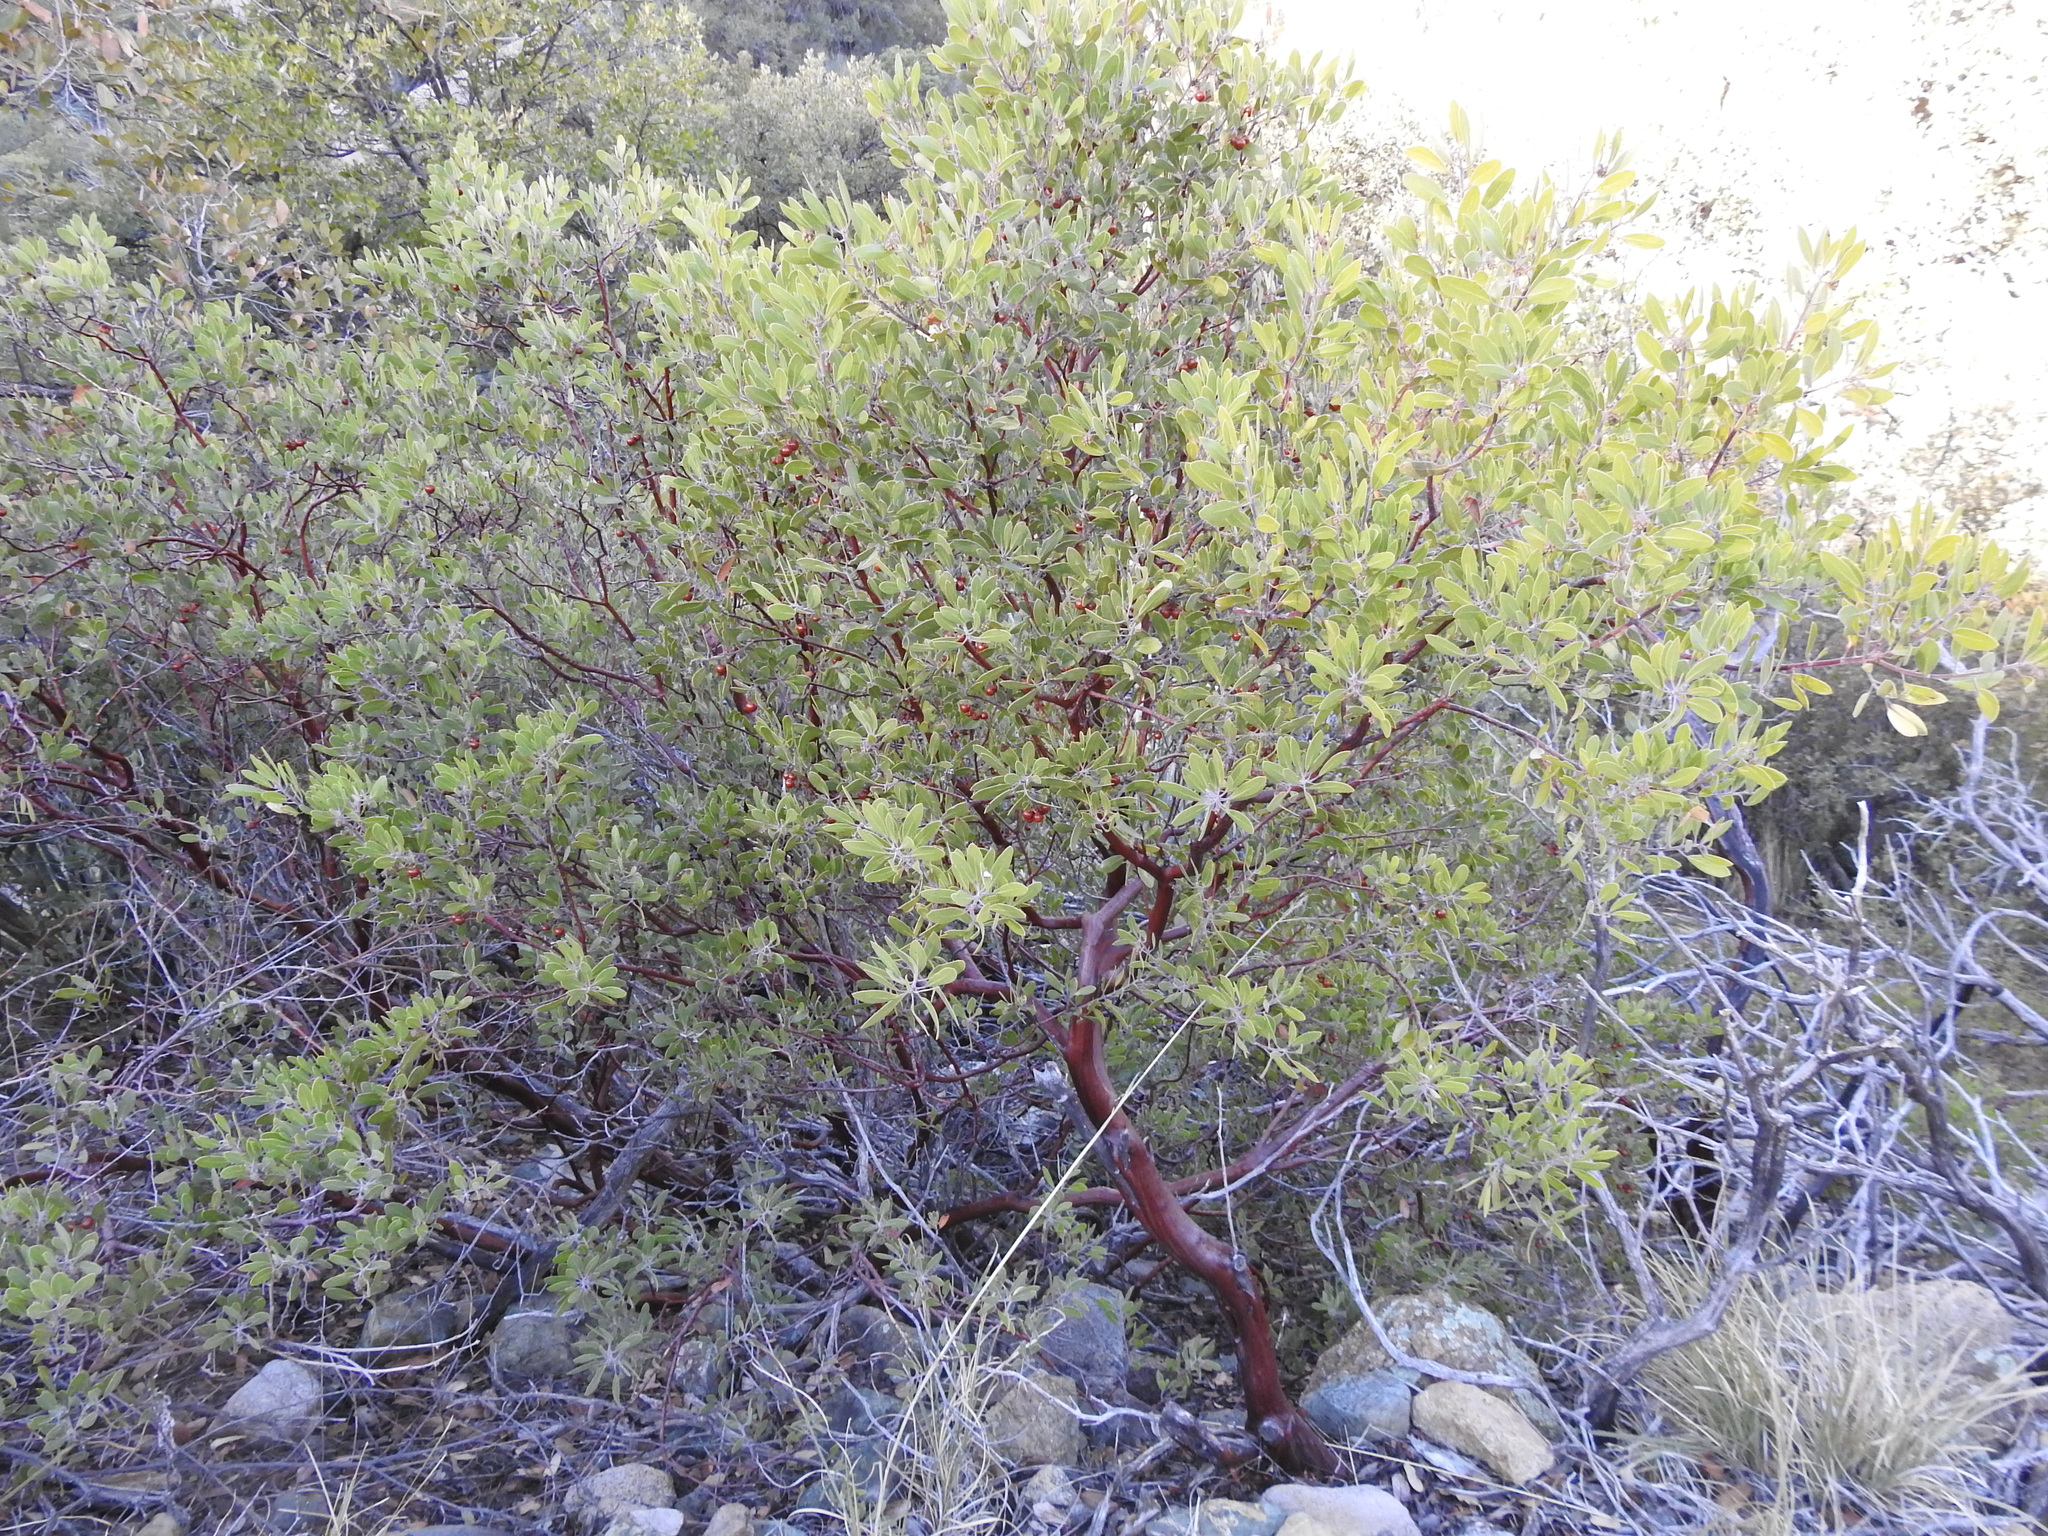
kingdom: Plantae
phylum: Tracheophyta
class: Magnoliopsida
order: Ericales
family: Ericaceae
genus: Arctostaphylos
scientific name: Arctostaphylos pungens
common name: Mexican manzanita
